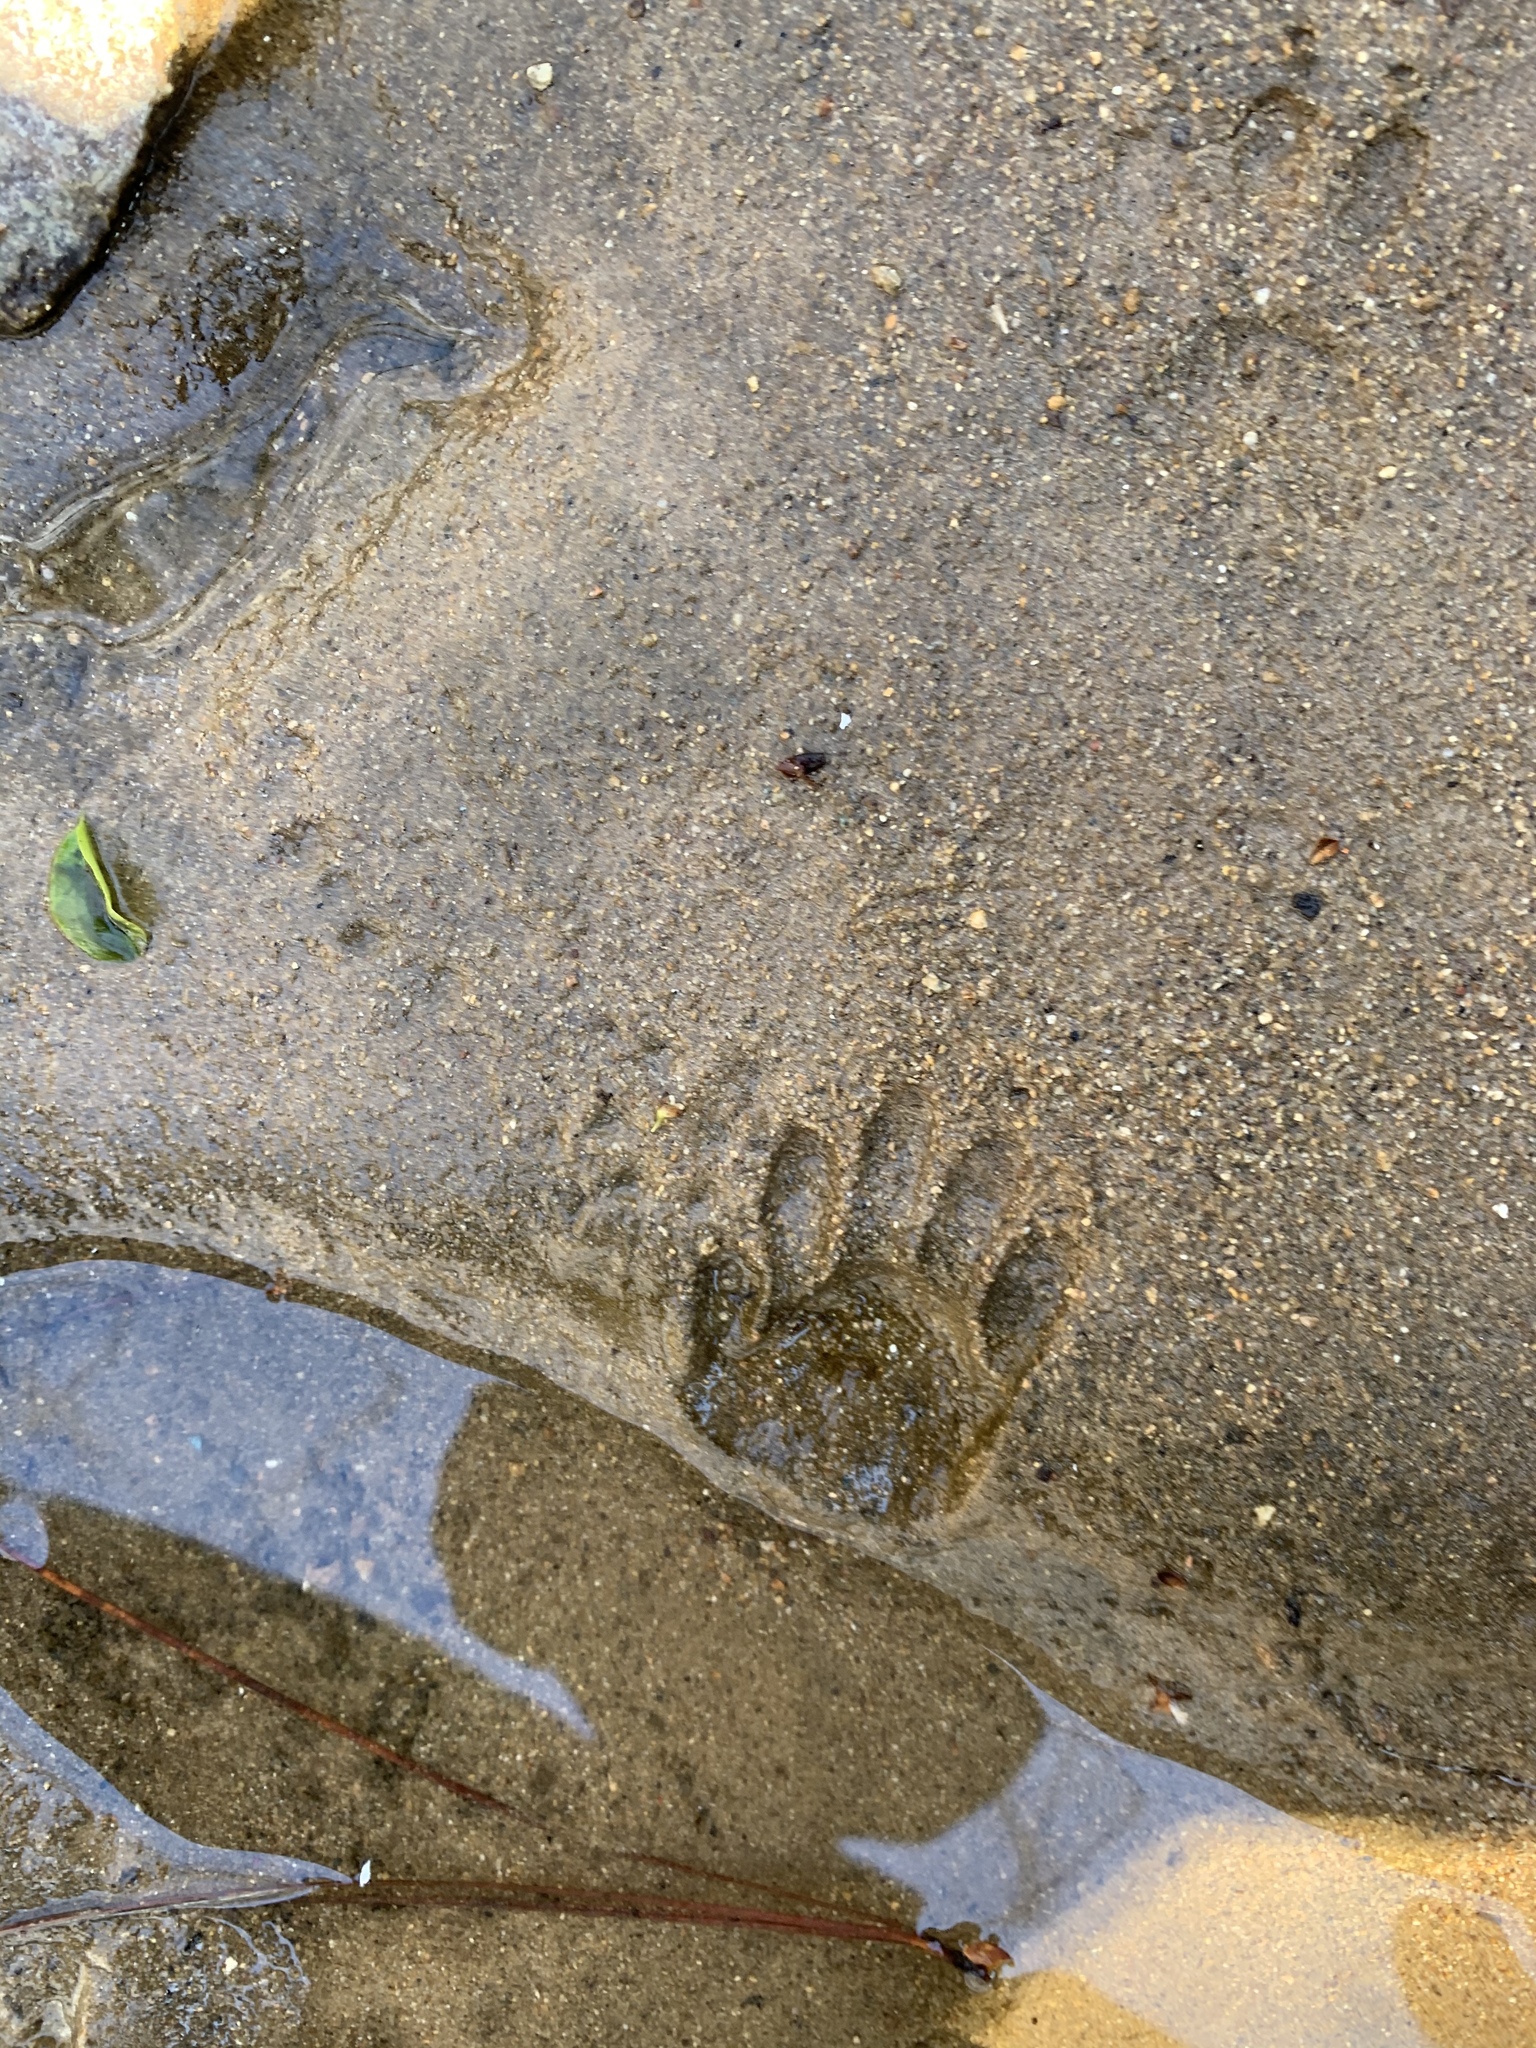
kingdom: Animalia
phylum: Chordata
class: Mammalia
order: Carnivora
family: Procyonidae
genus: Procyon
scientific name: Procyon lotor
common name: Raccoon
